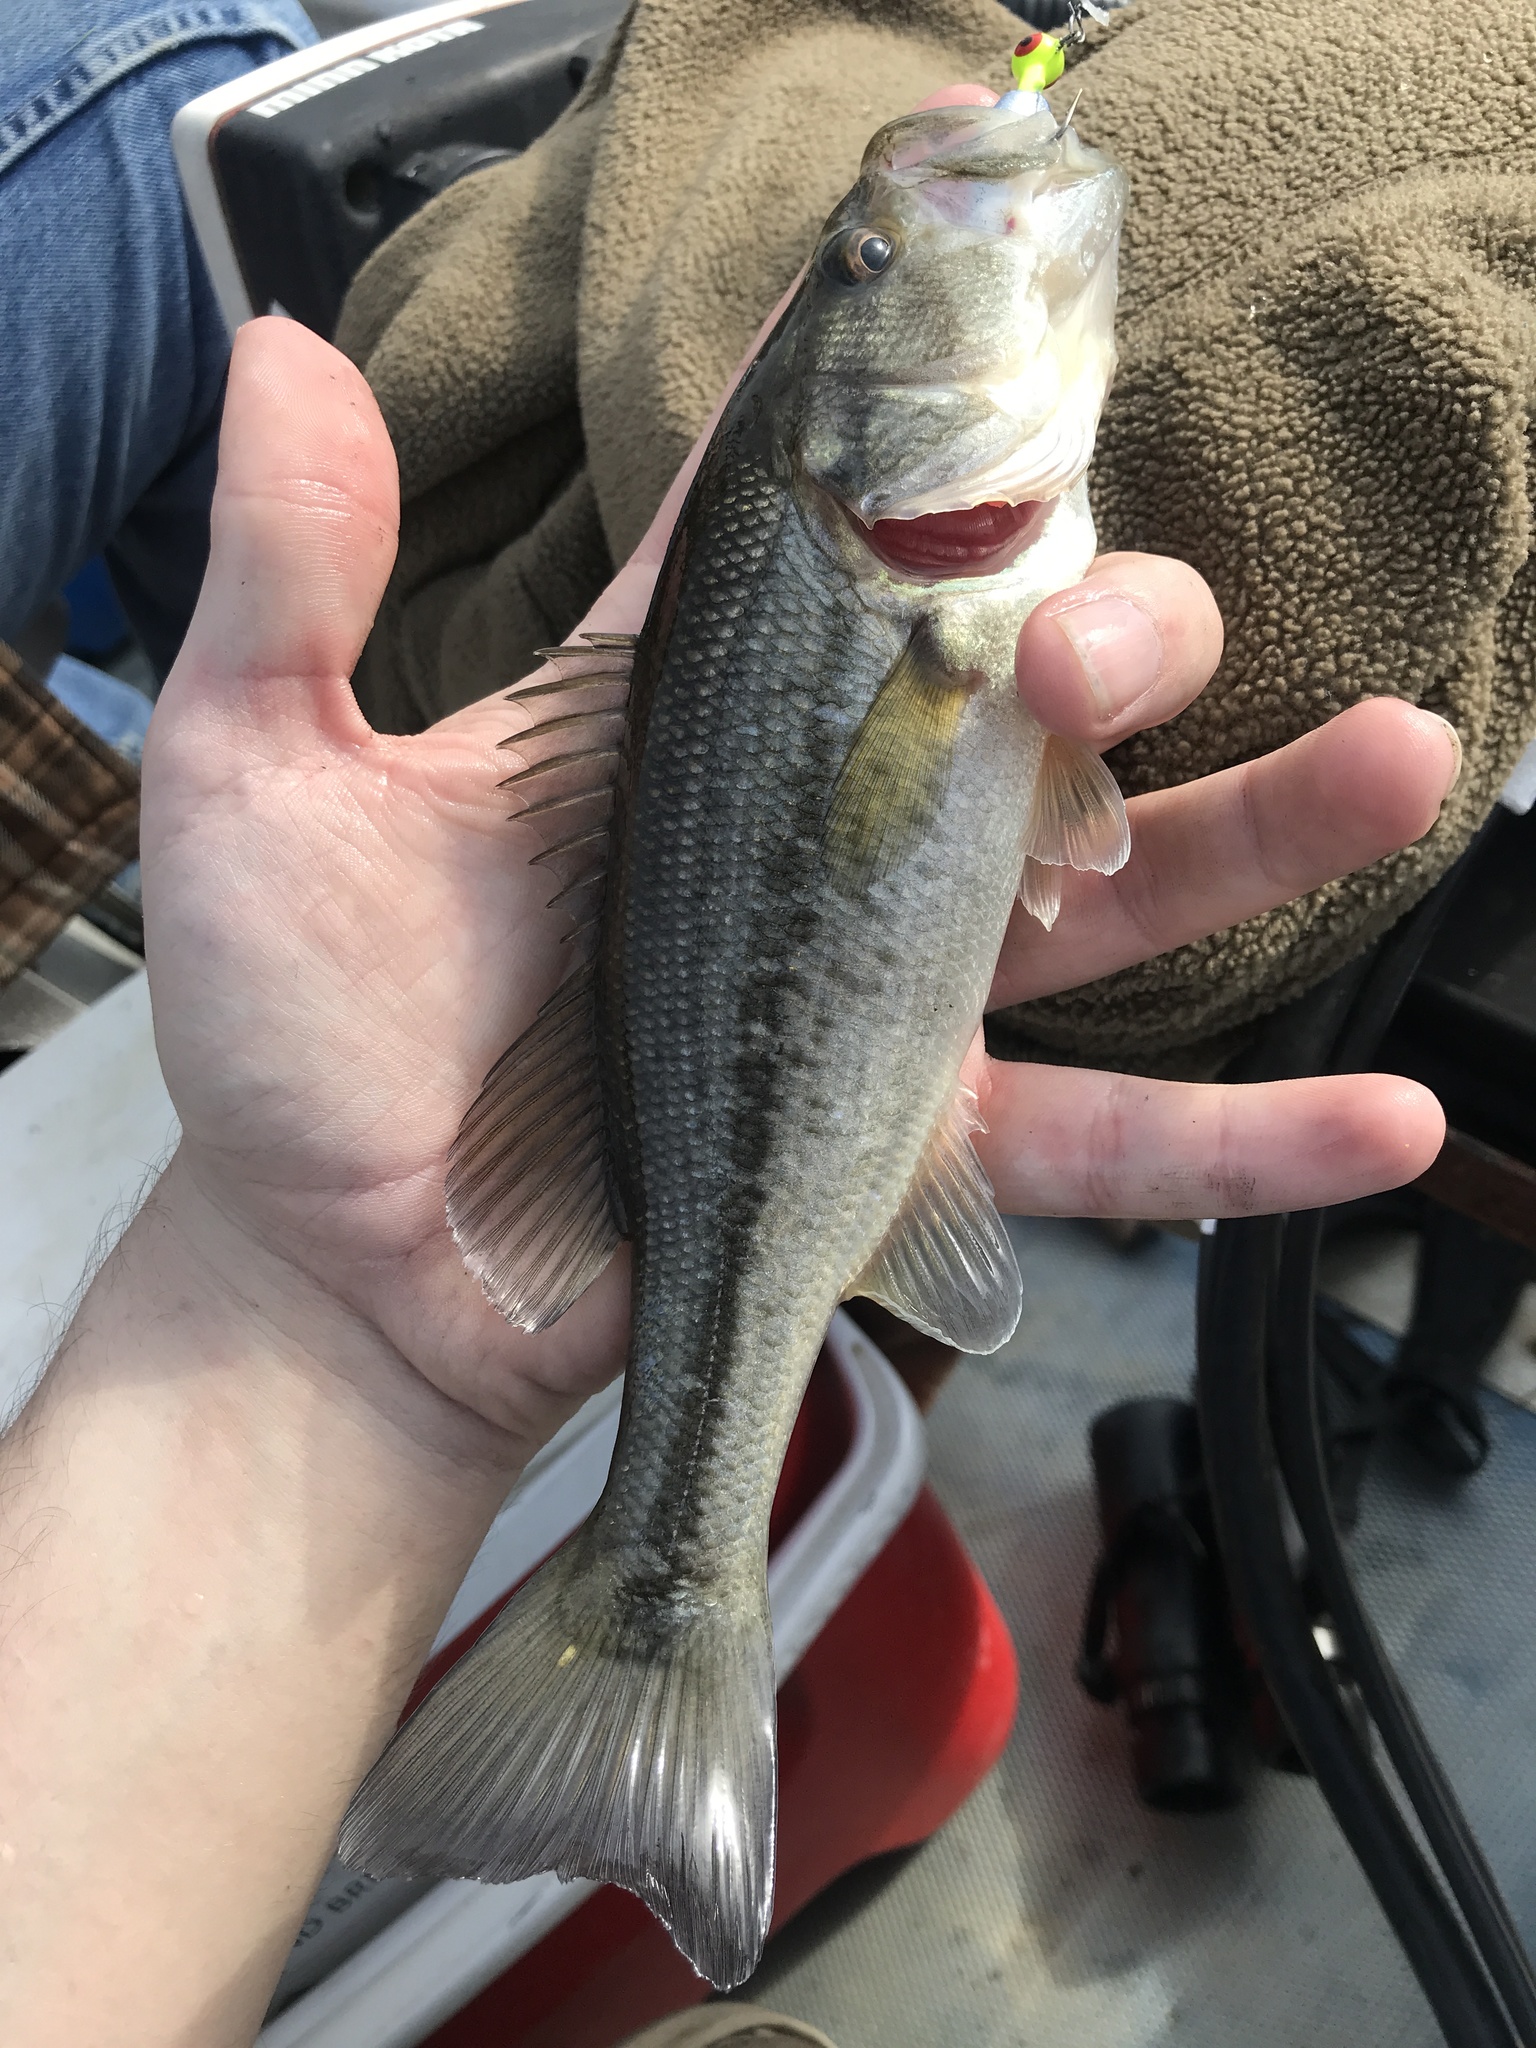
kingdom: Animalia
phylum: Chordata
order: Perciformes
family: Centrarchidae
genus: Micropterus
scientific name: Micropterus
